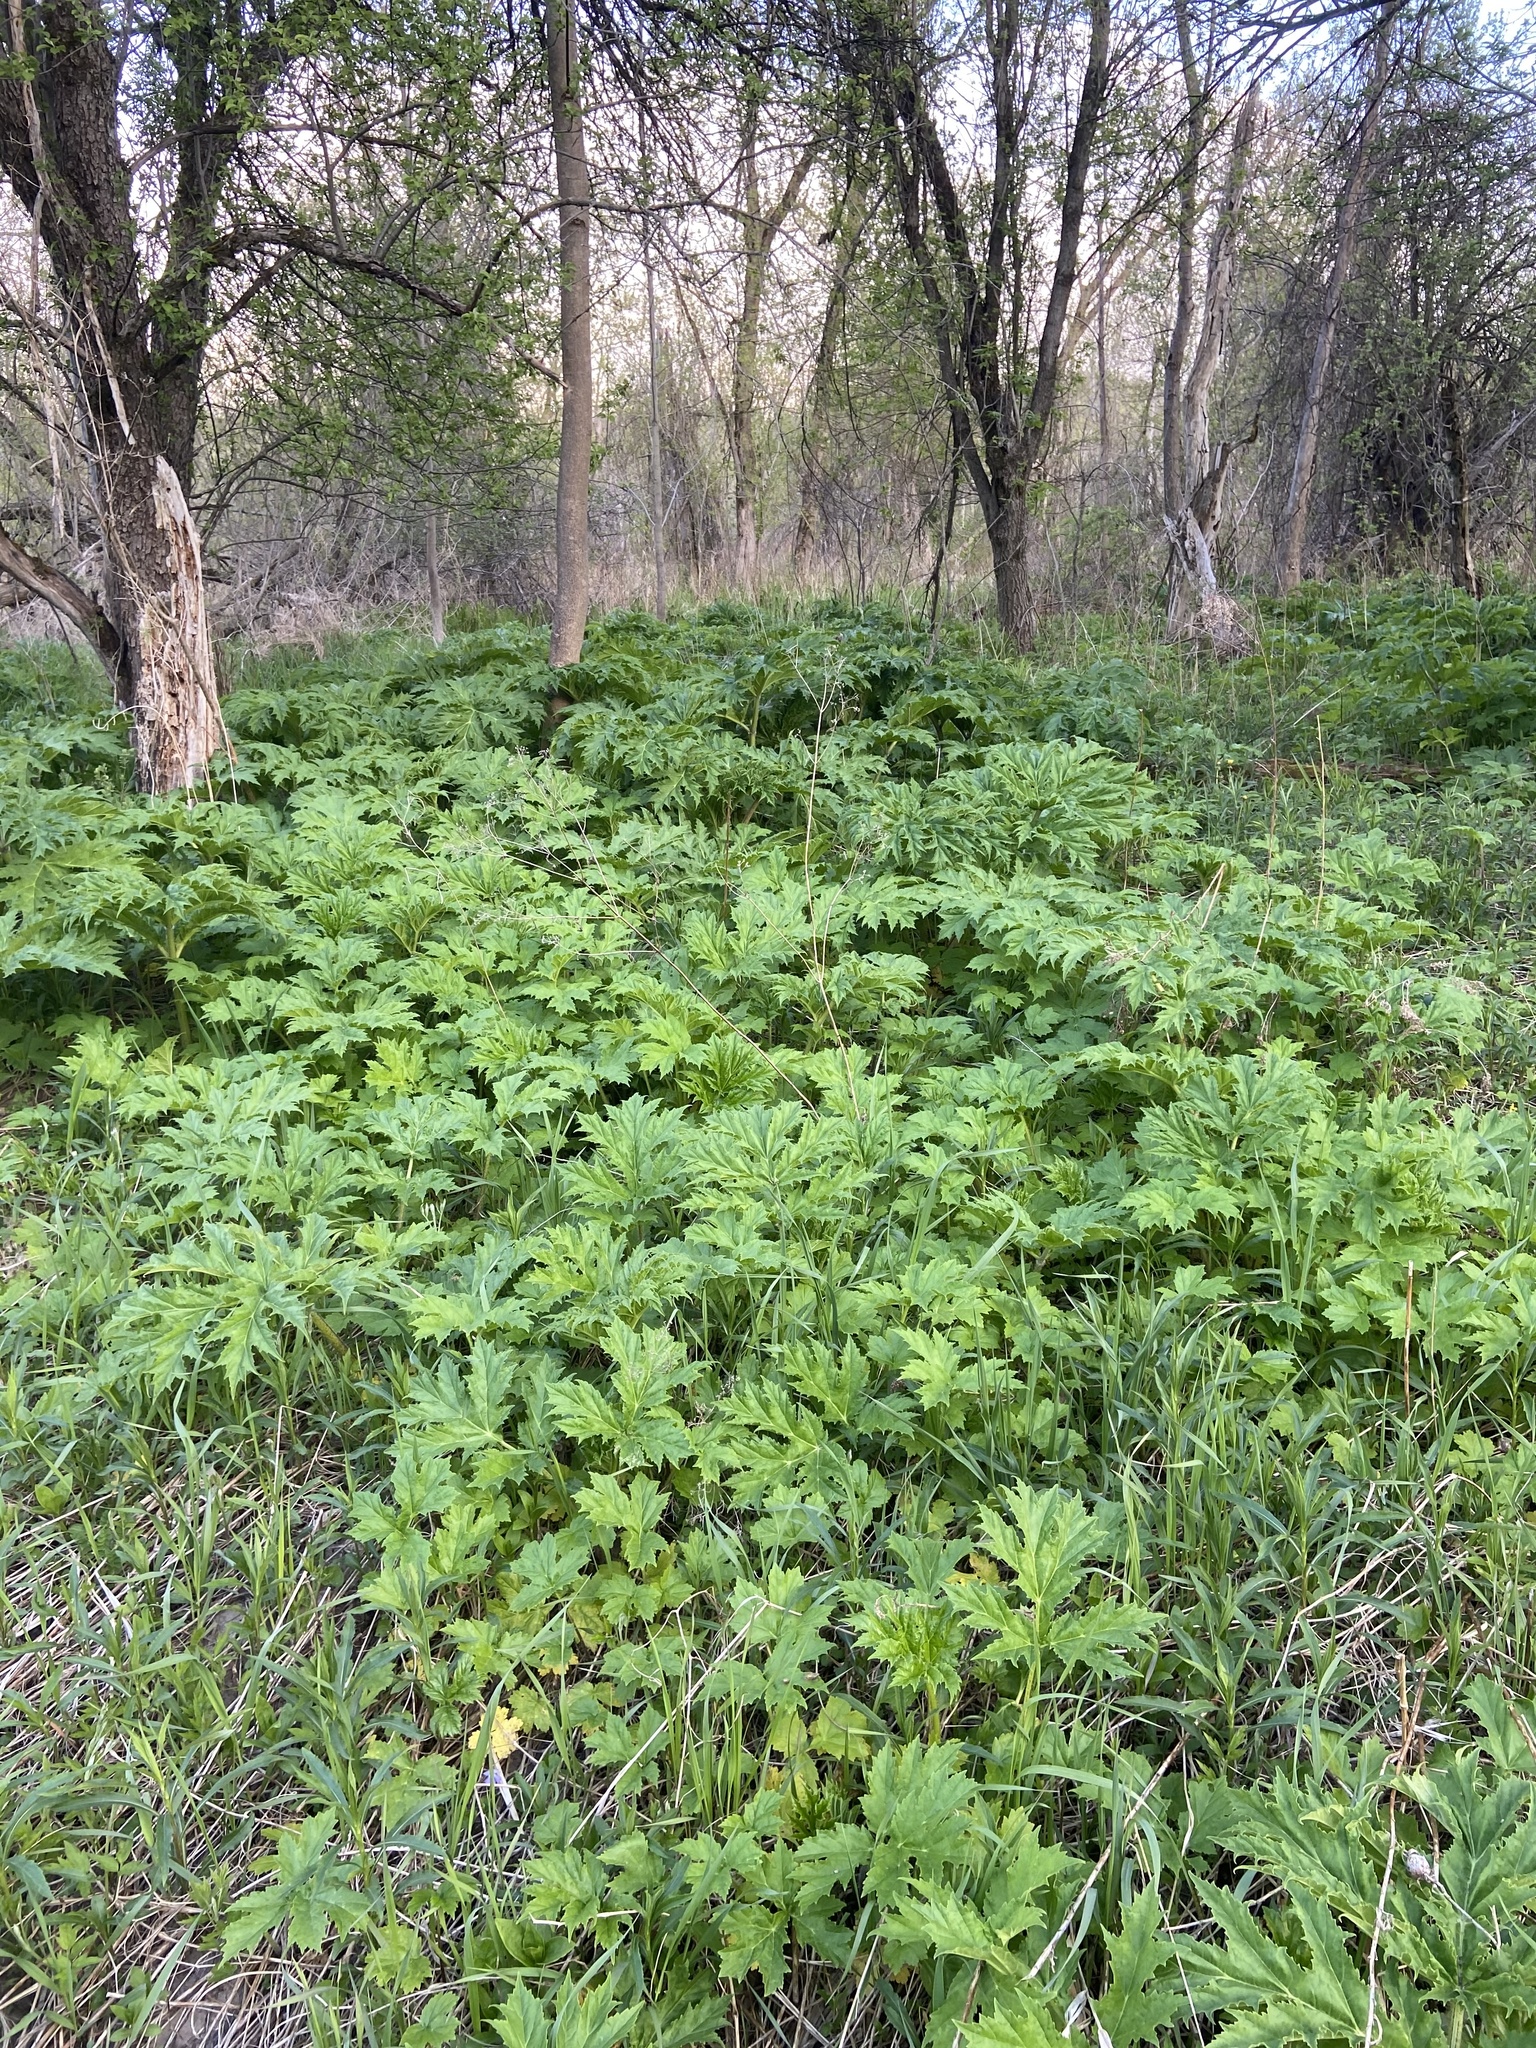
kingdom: Plantae
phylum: Tracheophyta
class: Magnoliopsida
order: Apiales
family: Apiaceae
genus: Heracleum
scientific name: Heracleum mantegazzianum
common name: Giant hogweed
